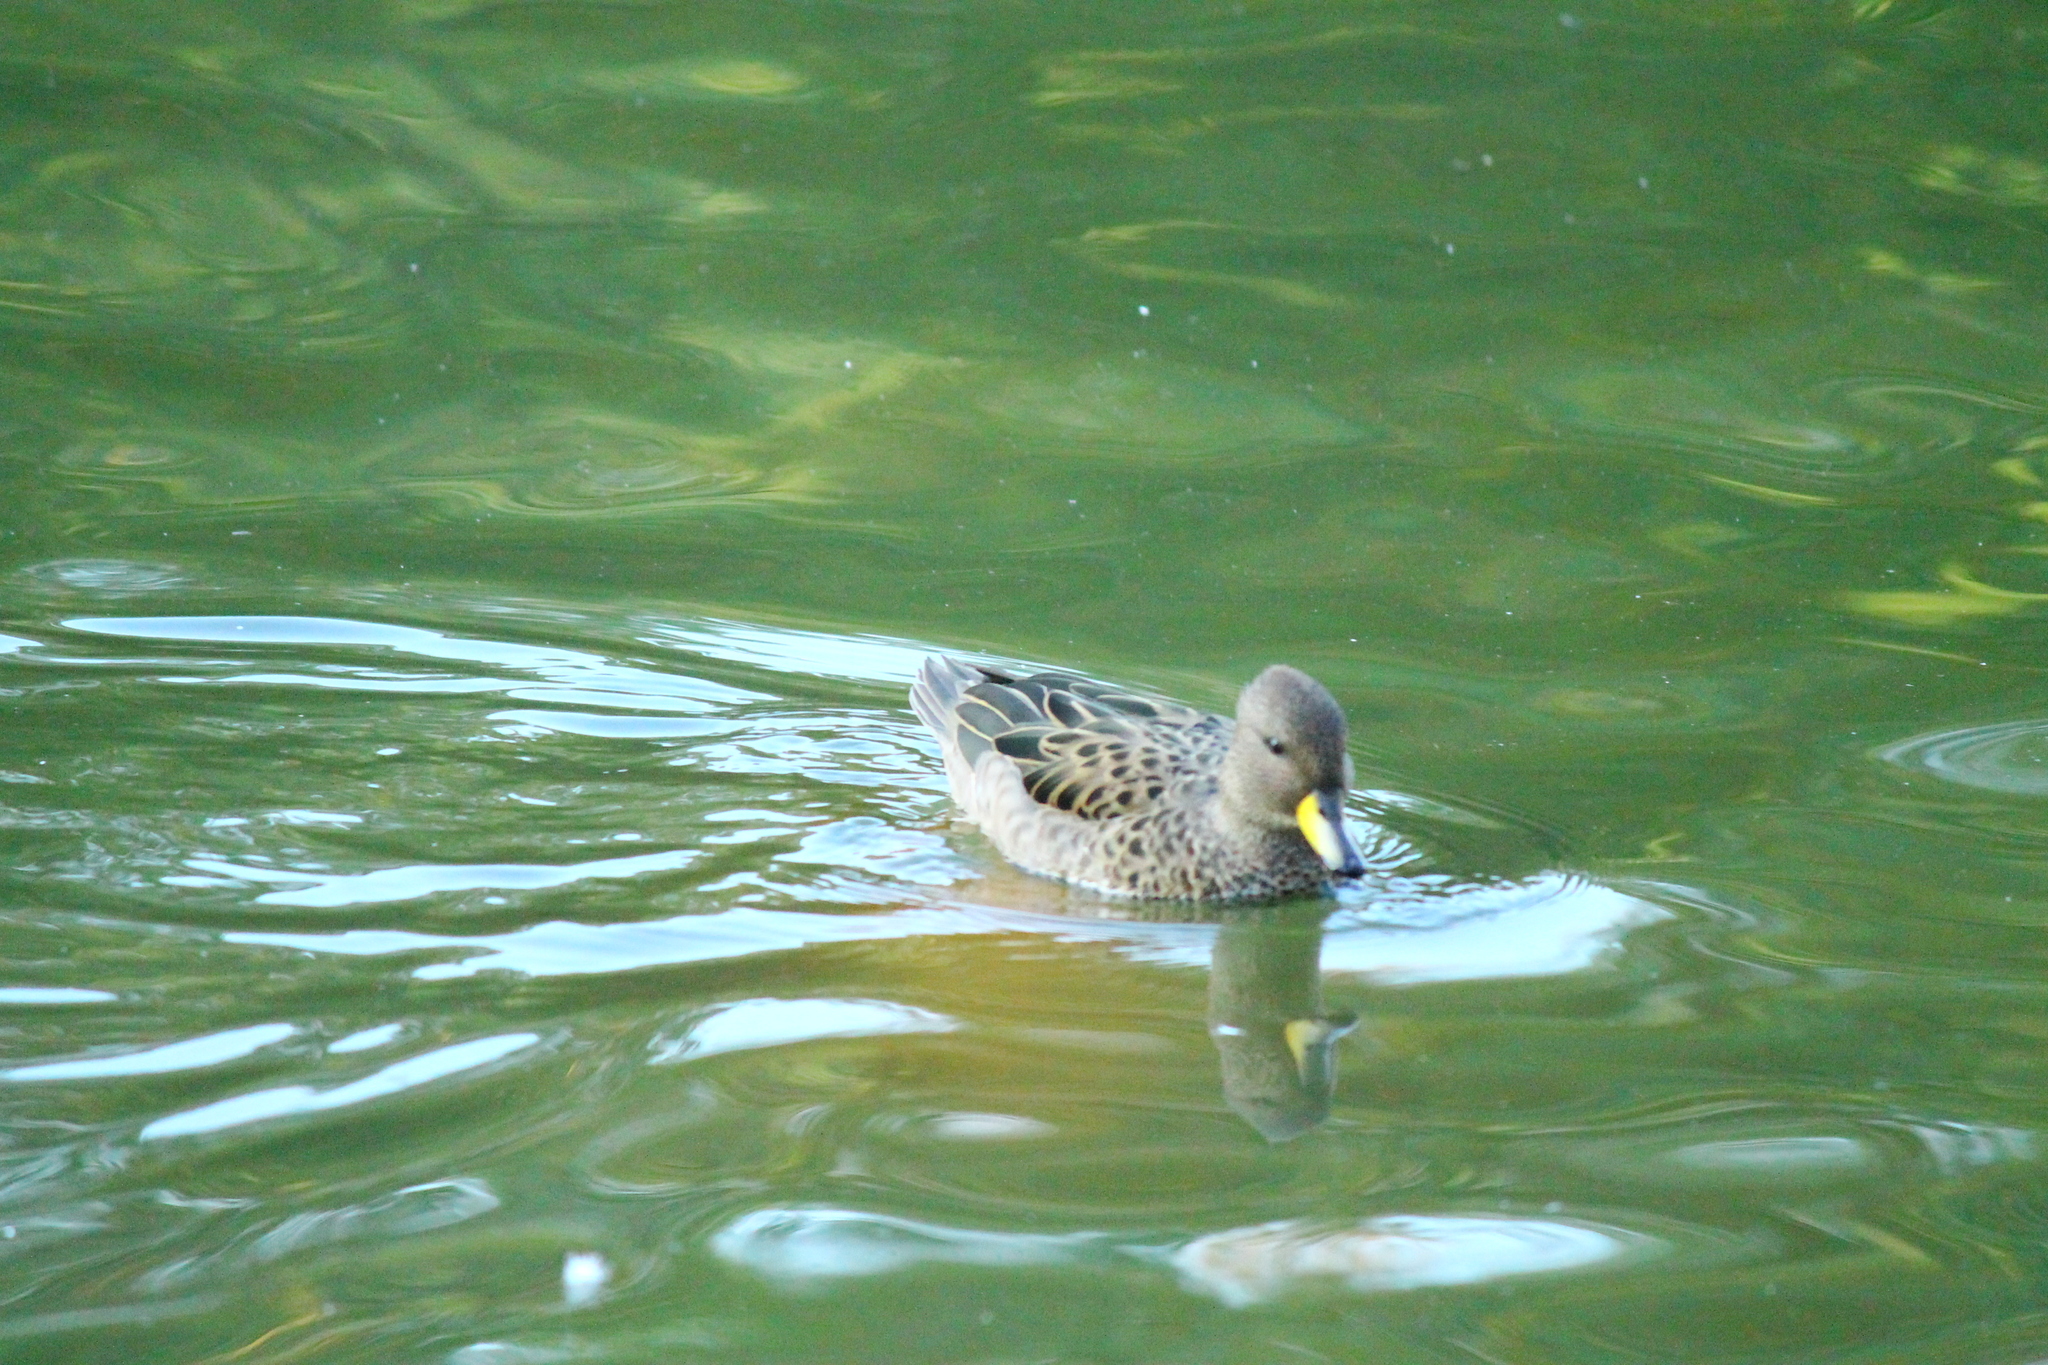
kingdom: Animalia
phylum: Chordata
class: Aves
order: Anseriformes
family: Anatidae
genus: Anas
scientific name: Anas flavirostris
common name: Yellow-billed teal
